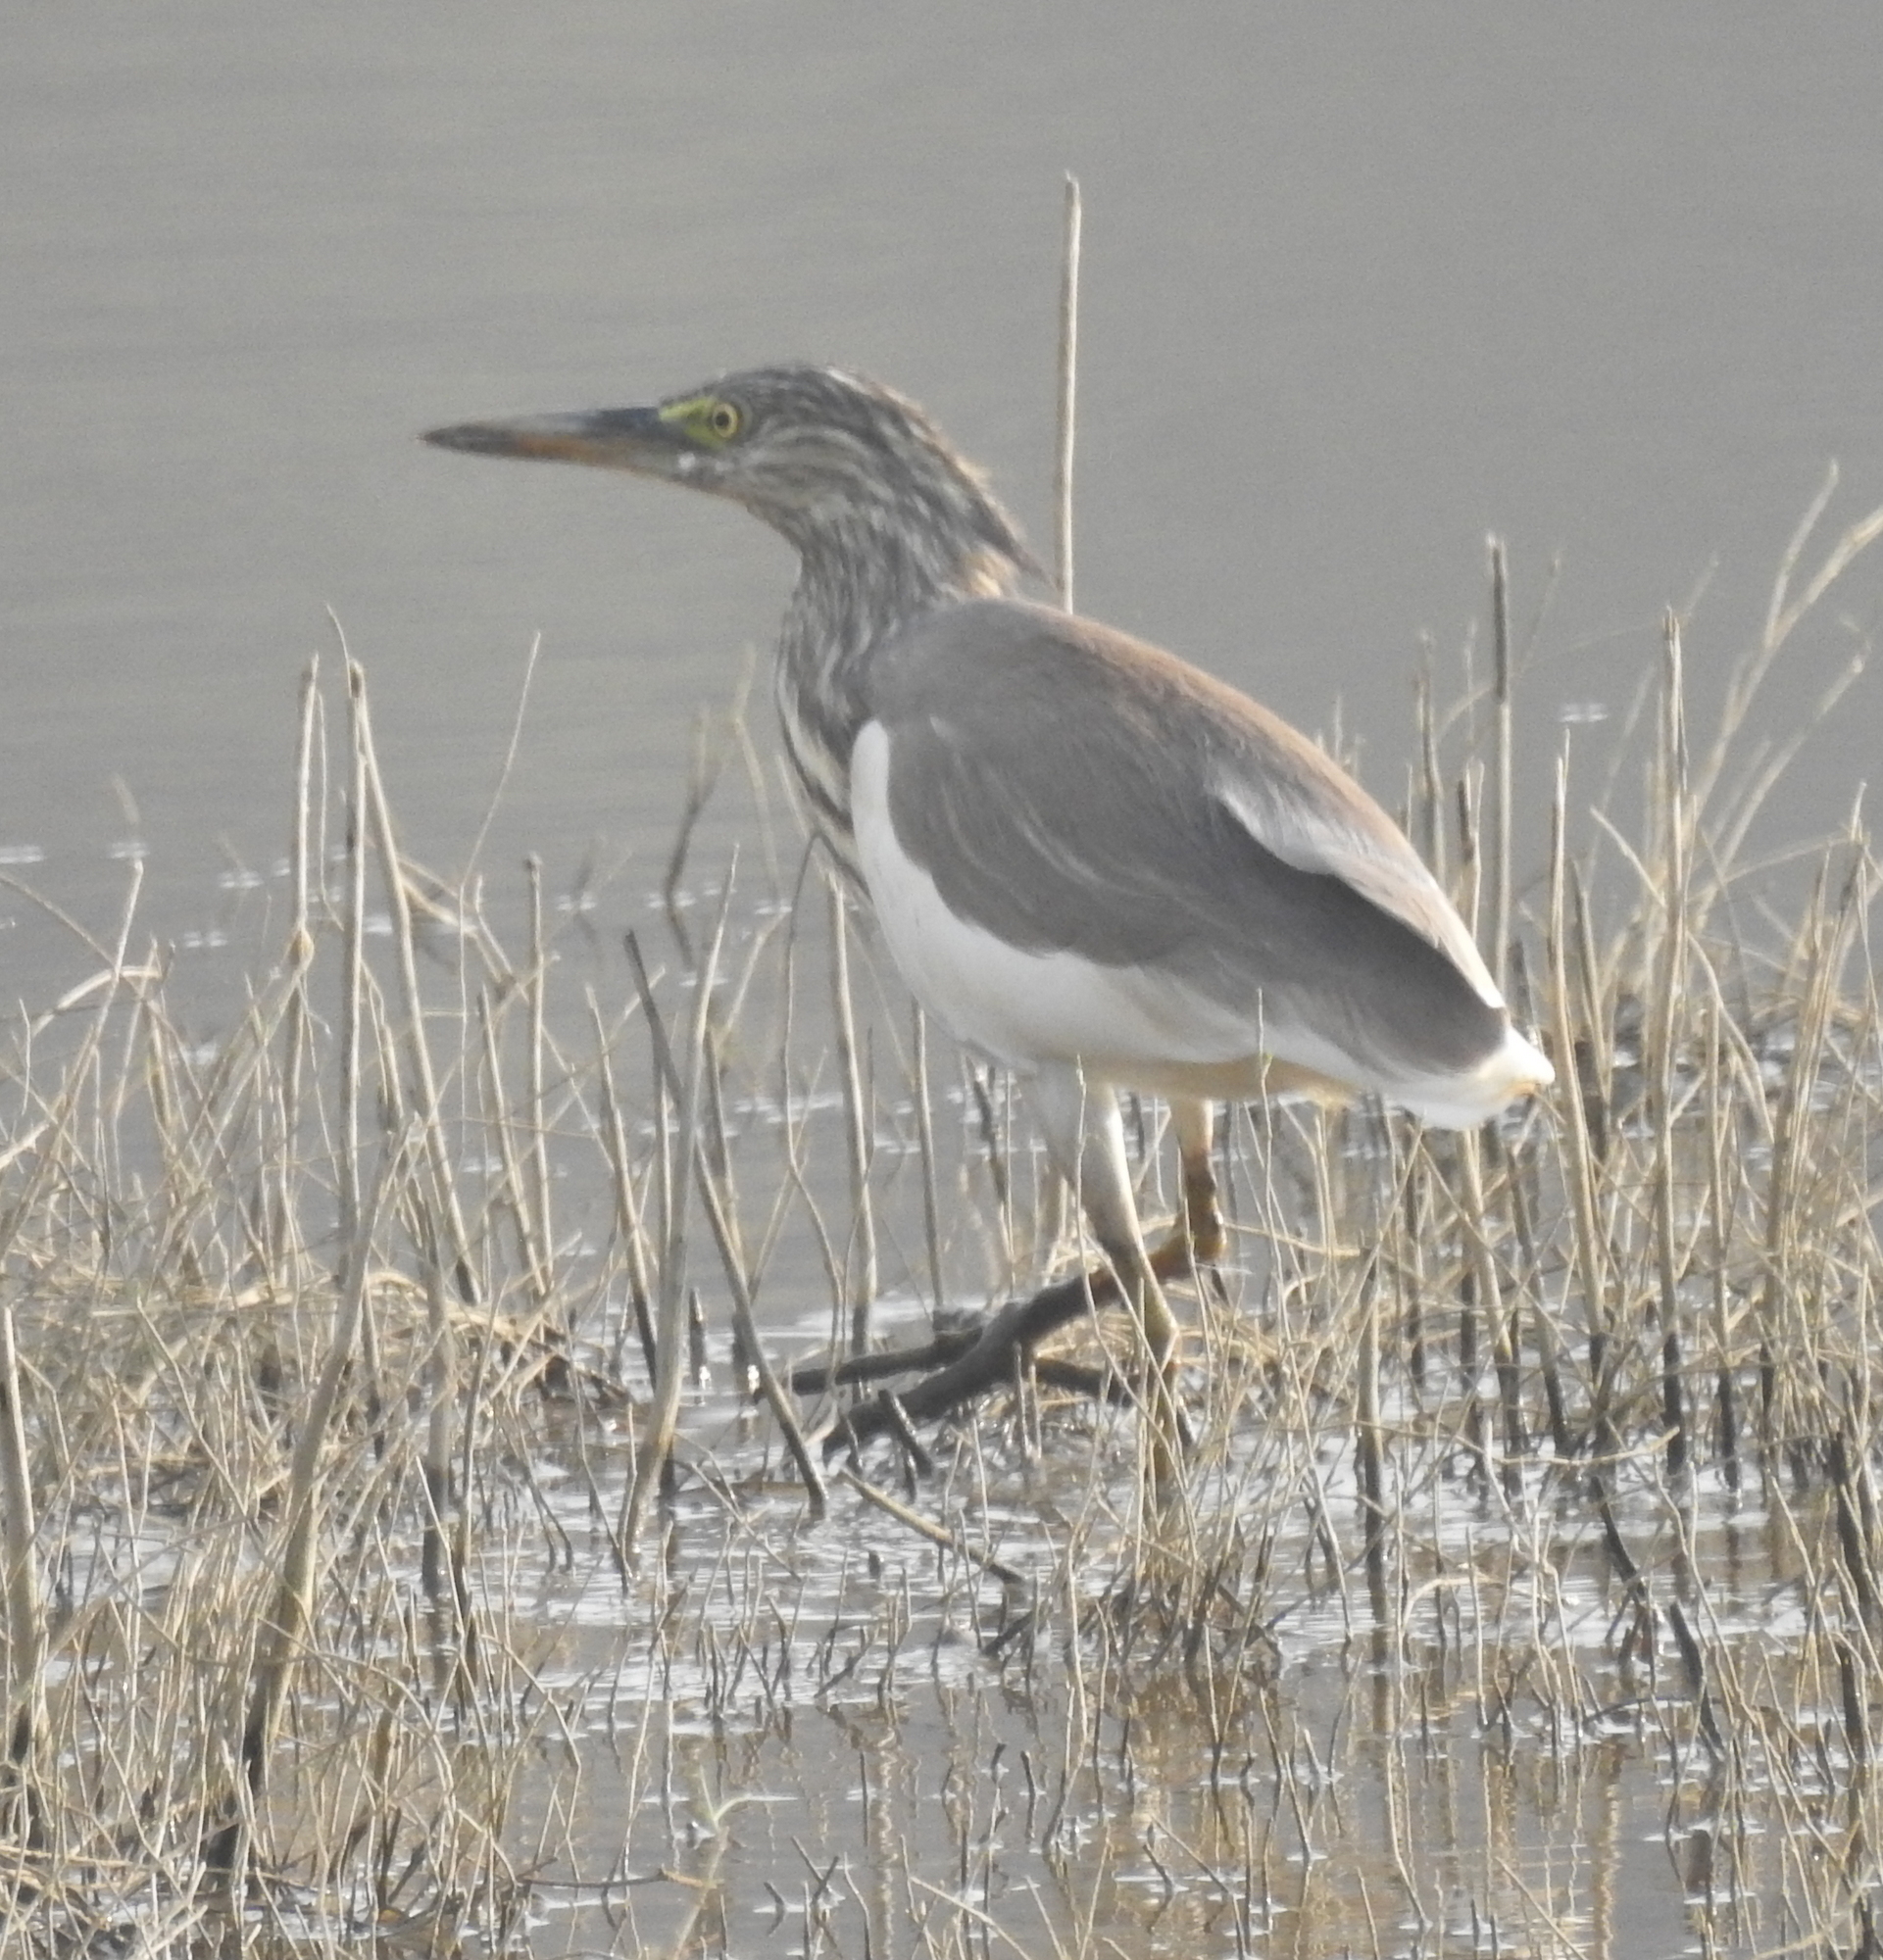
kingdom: Animalia
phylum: Chordata
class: Aves
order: Pelecaniformes
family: Ardeidae
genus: Ardeola
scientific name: Ardeola grayii
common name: Indian pond heron
